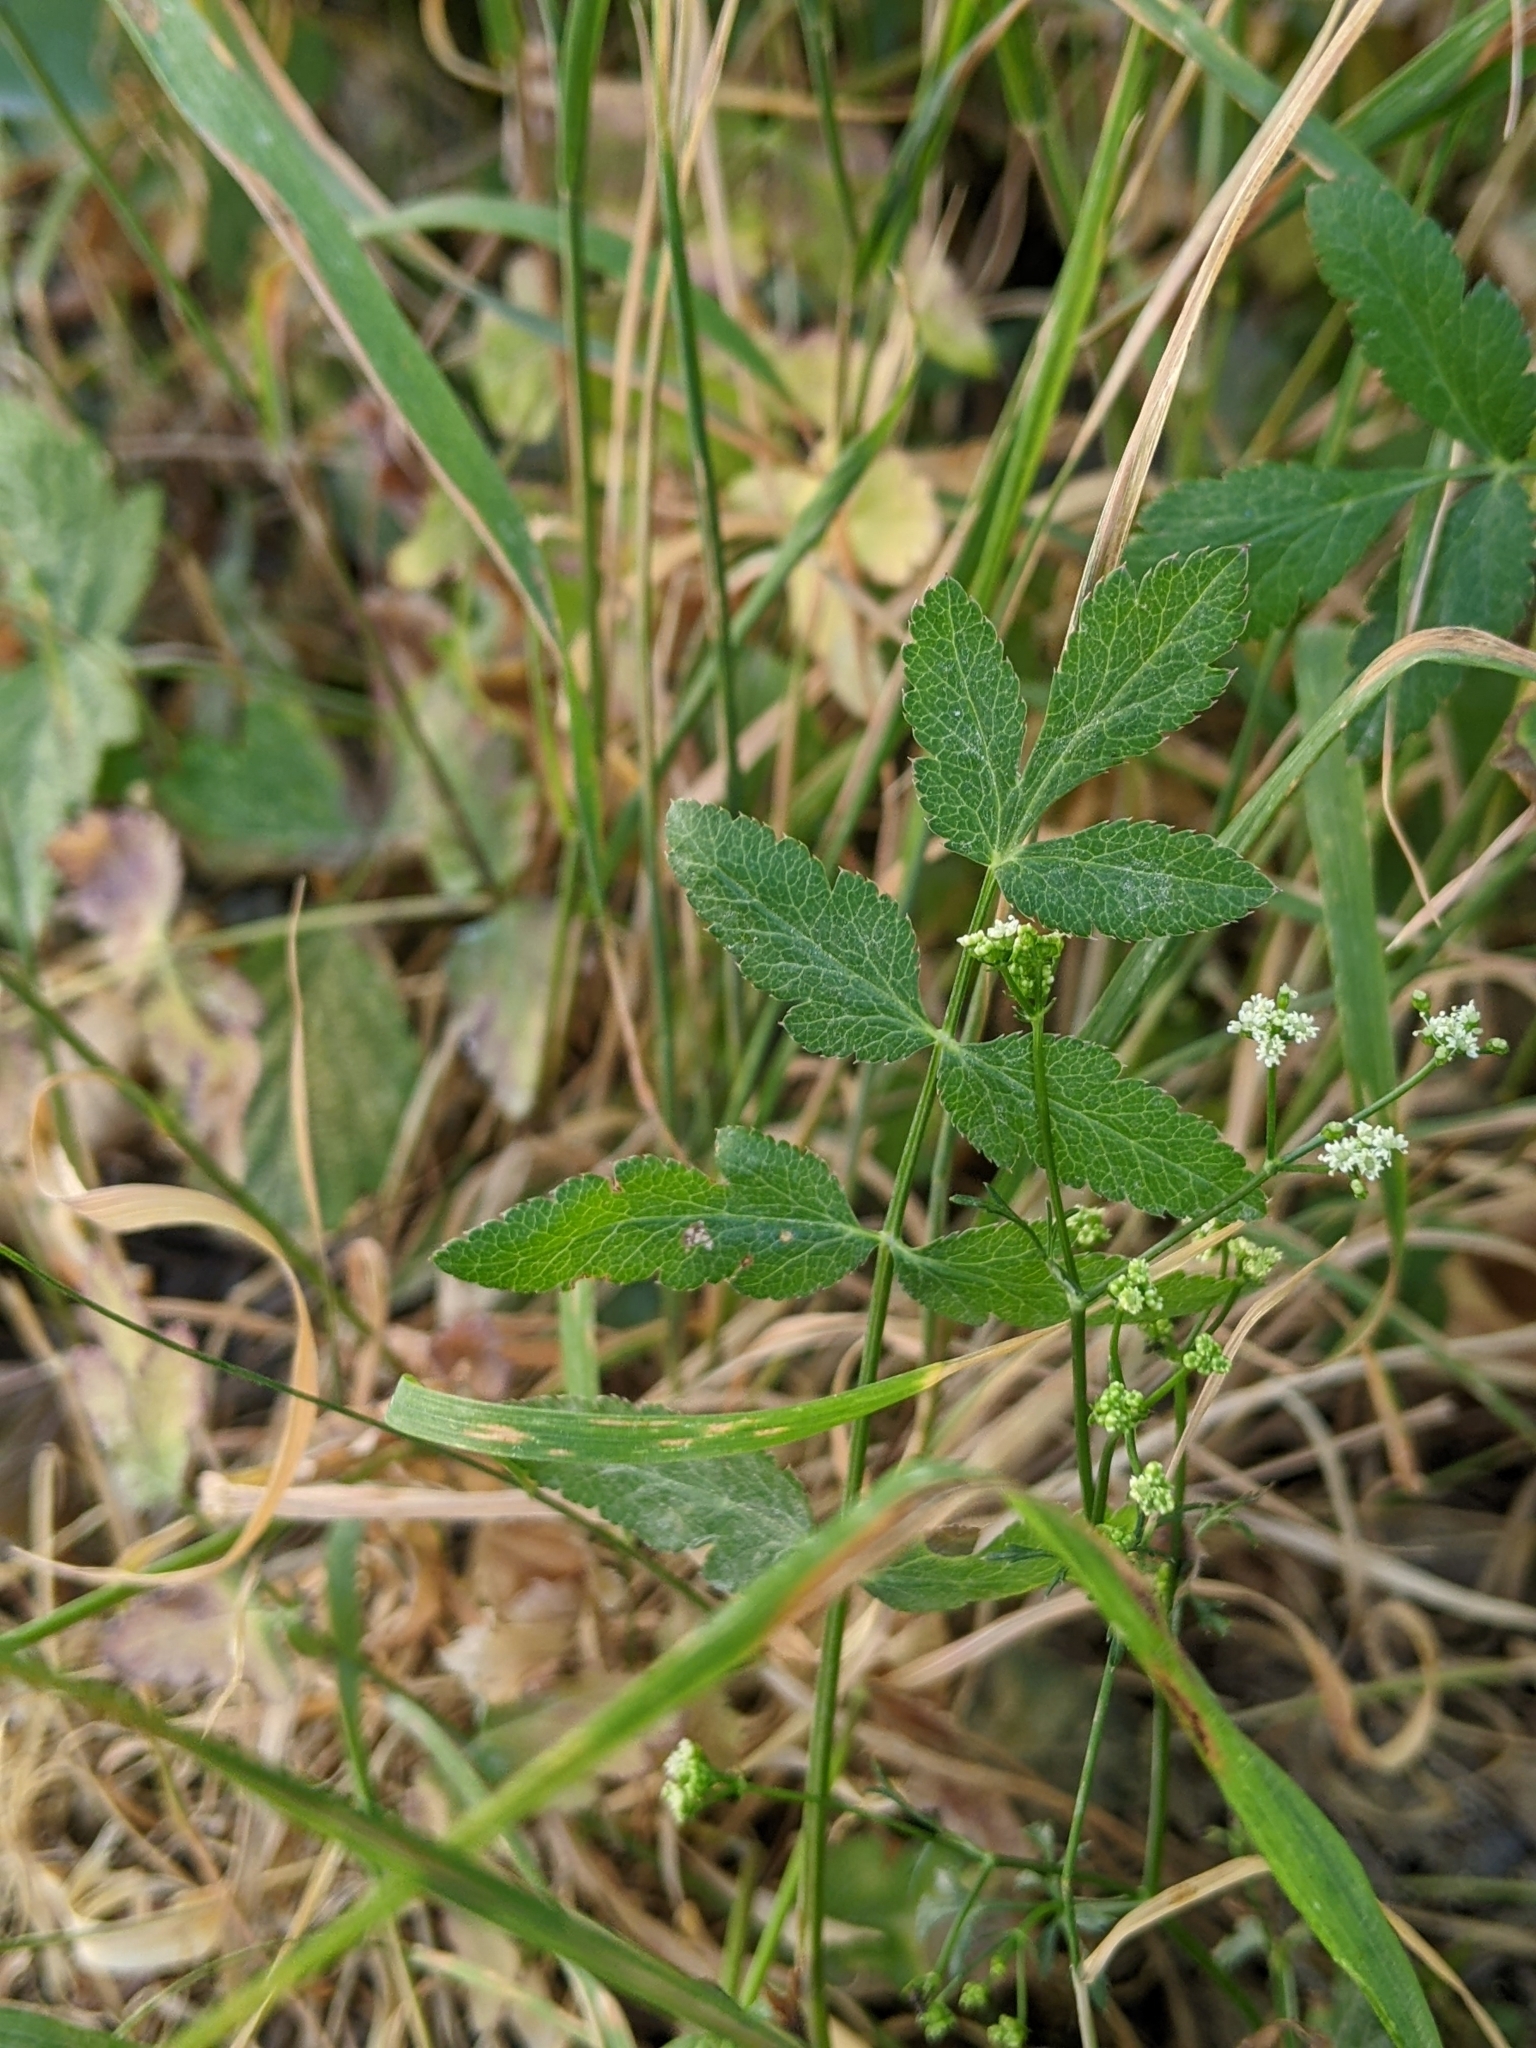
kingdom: Plantae
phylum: Tracheophyta
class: Magnoliopsida
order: Apiales
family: Apiaceae
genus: Sison
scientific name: Sison amomum
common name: Stone-parsley
